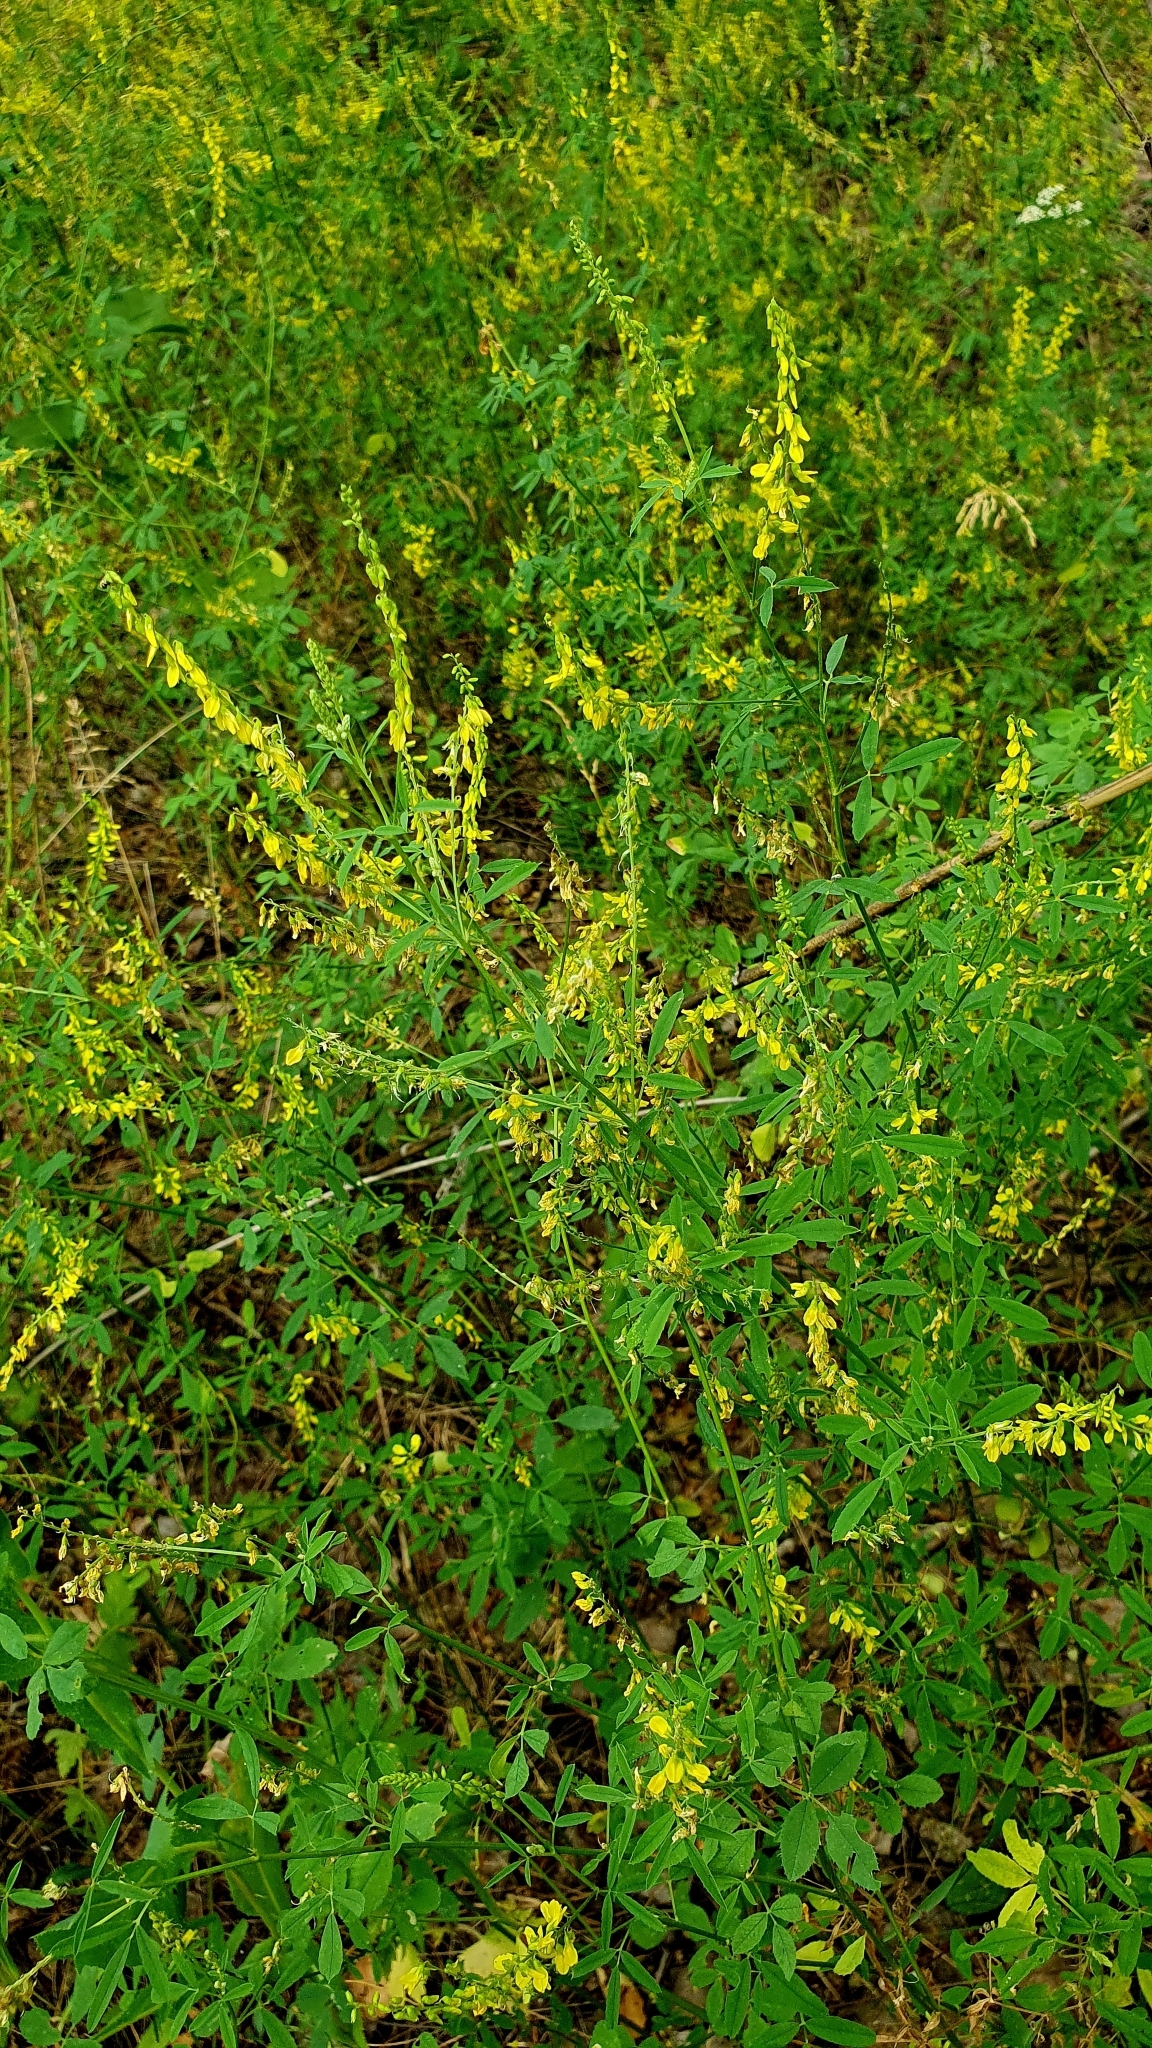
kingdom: Plantae
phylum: Tracheophyta
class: Magnoliopsida
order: Fabales
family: Fabaceae
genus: Melilotus
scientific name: Melilotus officinalis
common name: Sweetclover
